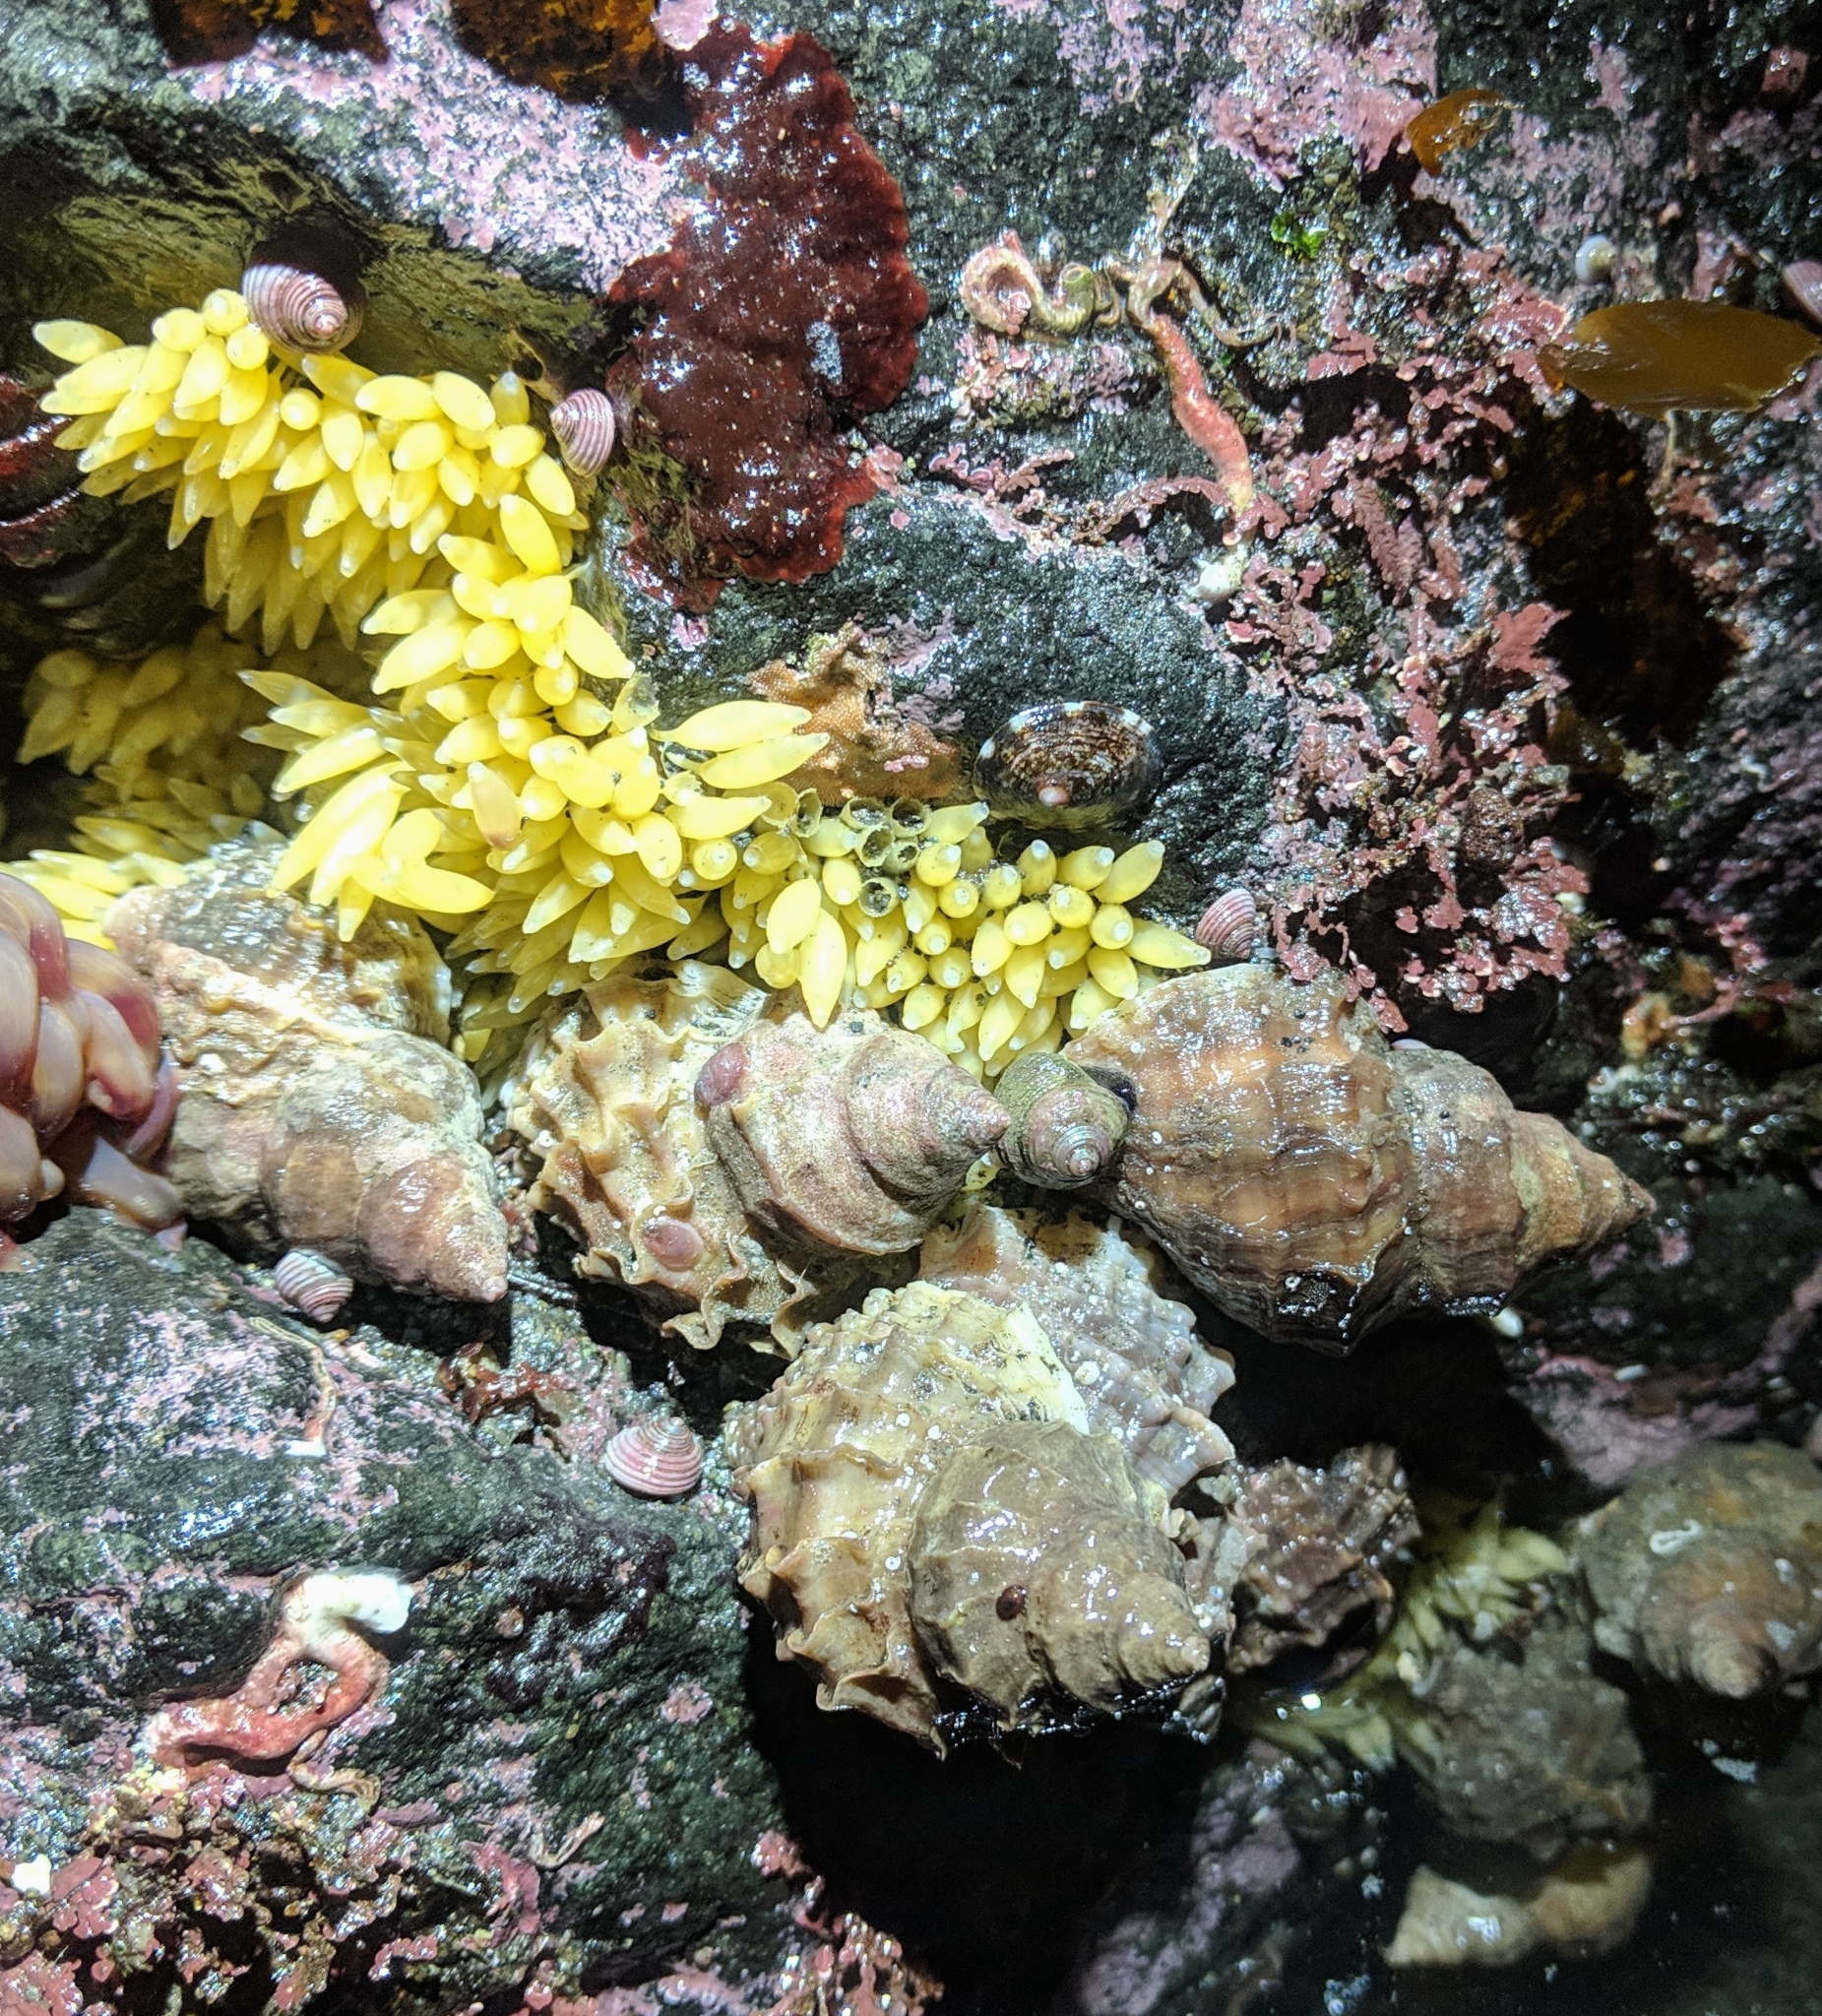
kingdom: Animalia
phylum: Mollusca
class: Gastropoda
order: Neogastropoda
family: Muricidae
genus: Nucella
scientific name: Nucella lamellosa
